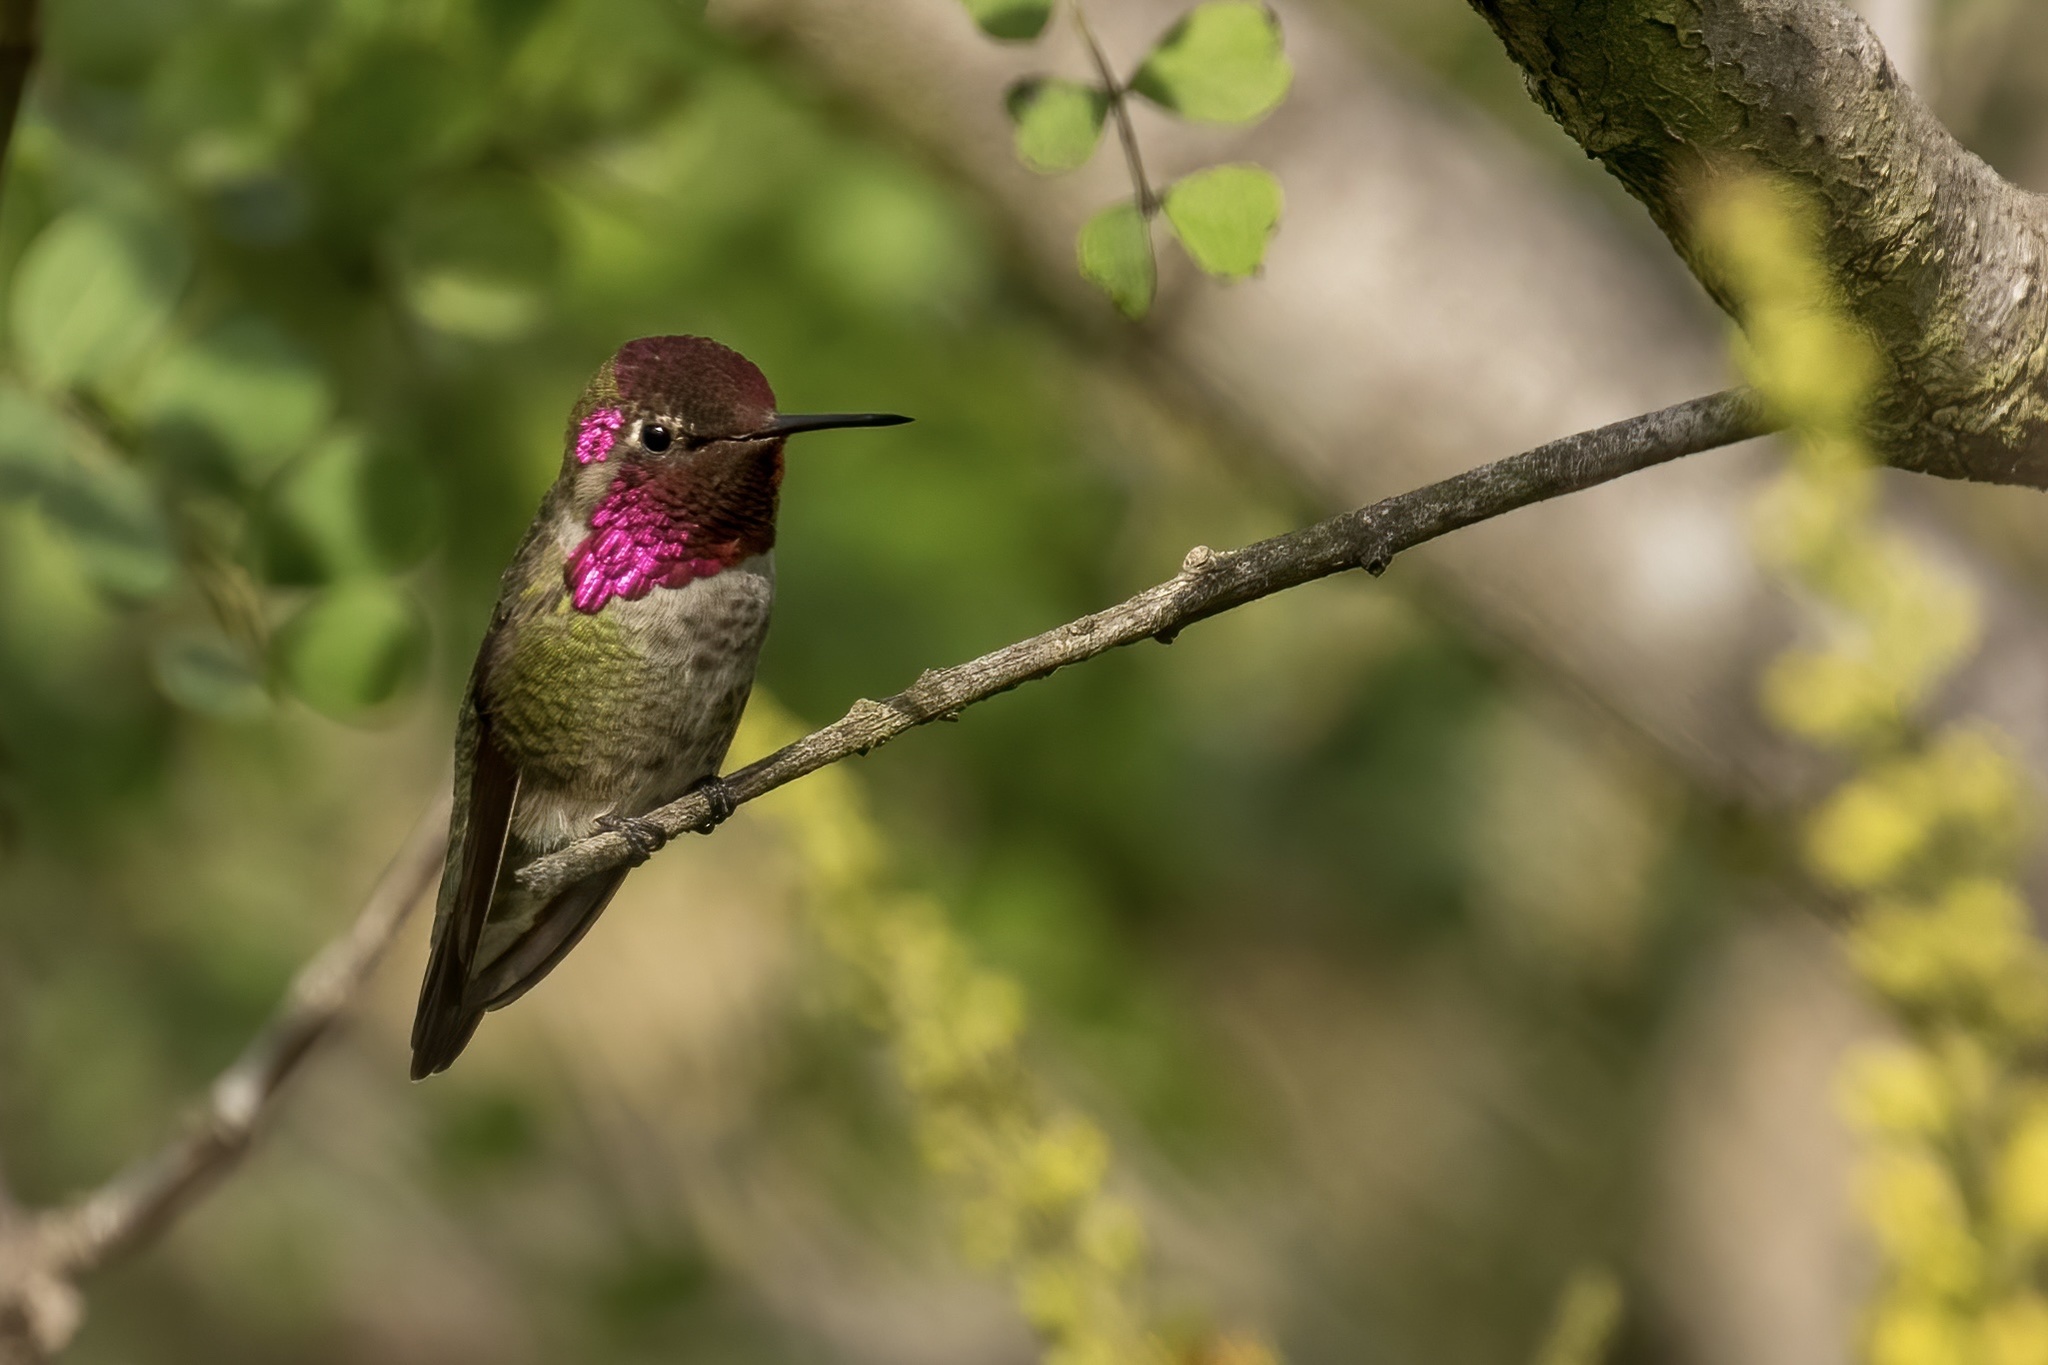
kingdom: Animalia
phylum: Chordata
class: Aves
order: Apodiformes
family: Trochilidae
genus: Calypte
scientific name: Calypte anna
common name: Anna's hummingbird
